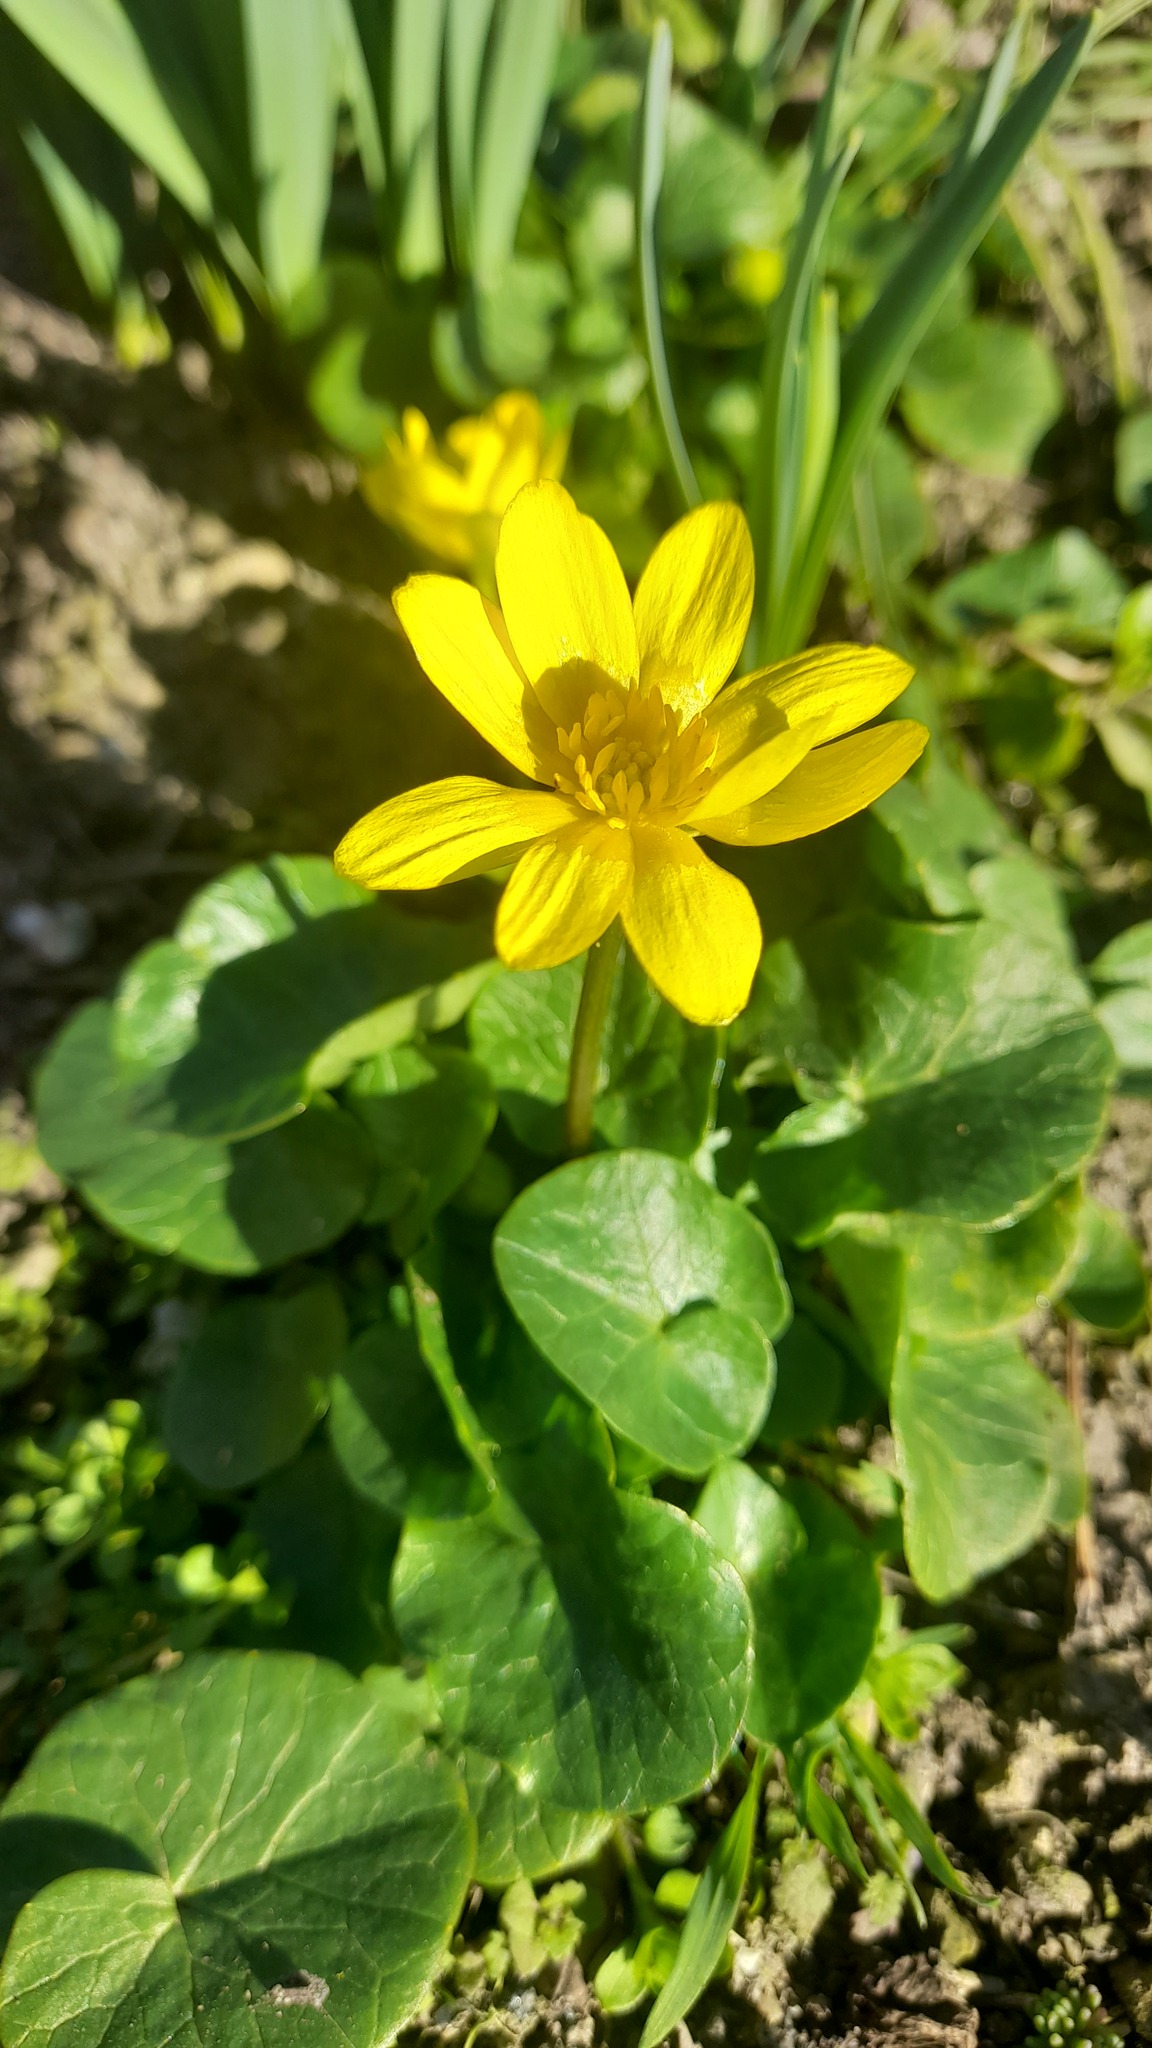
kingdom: Plantae
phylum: Tracheophyta
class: Magnoliopsida
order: Ranunculales
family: Ranunculaceae
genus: Ficaria
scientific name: Ficaria verna
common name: Lesser celandine
